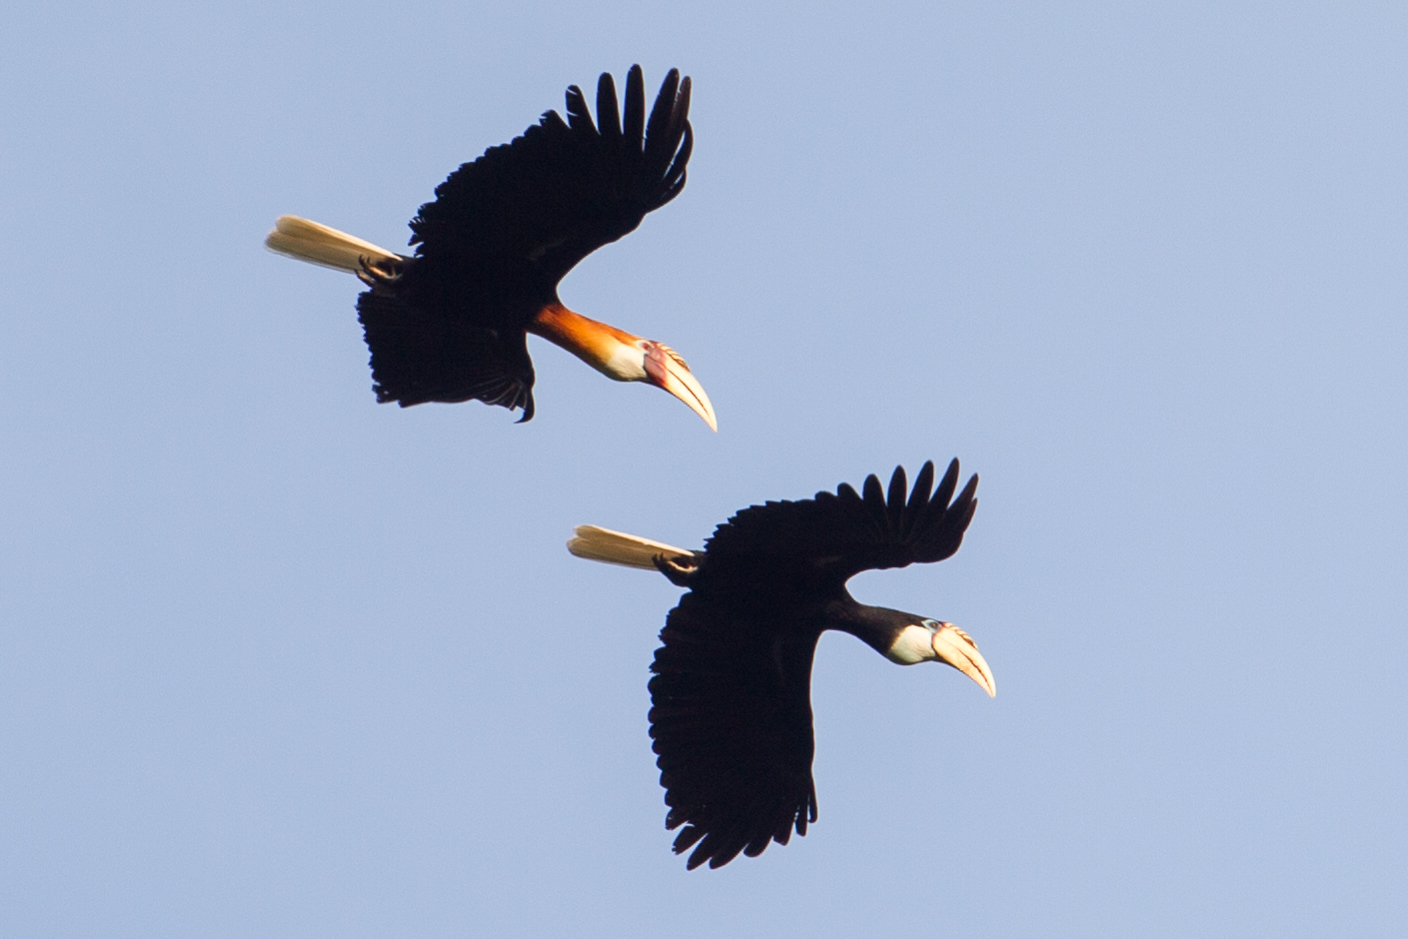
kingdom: Animalia
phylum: Chordata
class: Aves
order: Bucerotiformes
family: Bucerotidae
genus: Rhyticeros
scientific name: Rhyticeros plicatus
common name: Blyth's hornbill
